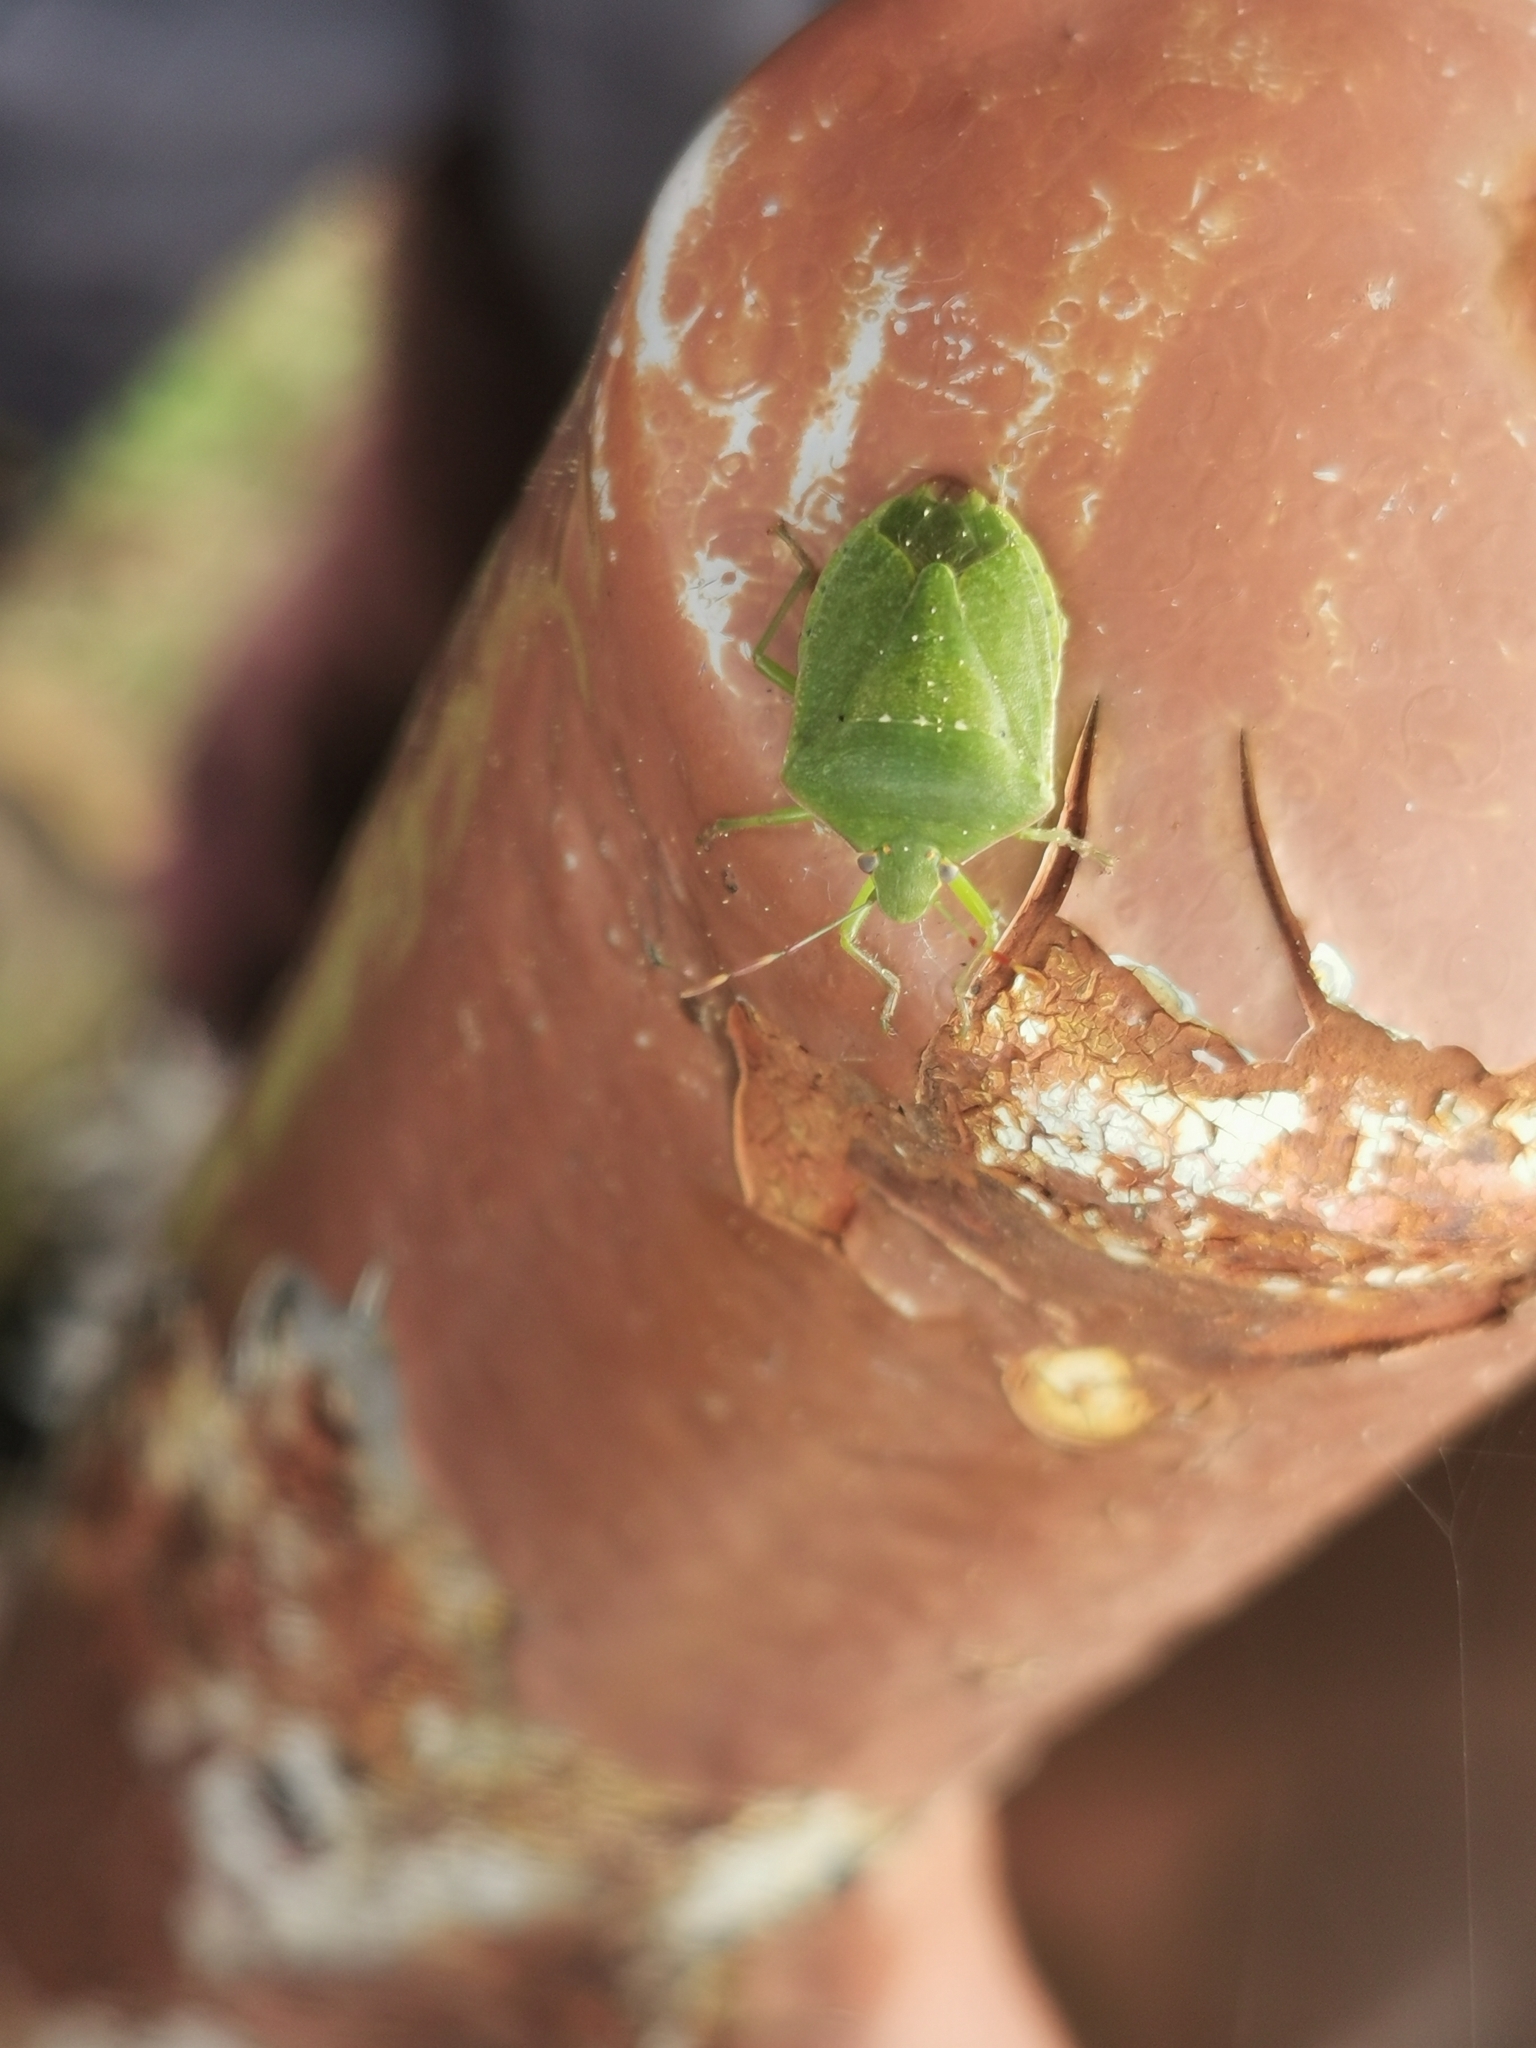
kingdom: Animalia
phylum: Arthropoda
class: Insecta
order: Hemiptera
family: Pentatomidae
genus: Nezara
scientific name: Nezara viridula
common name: Southern green stink bug
